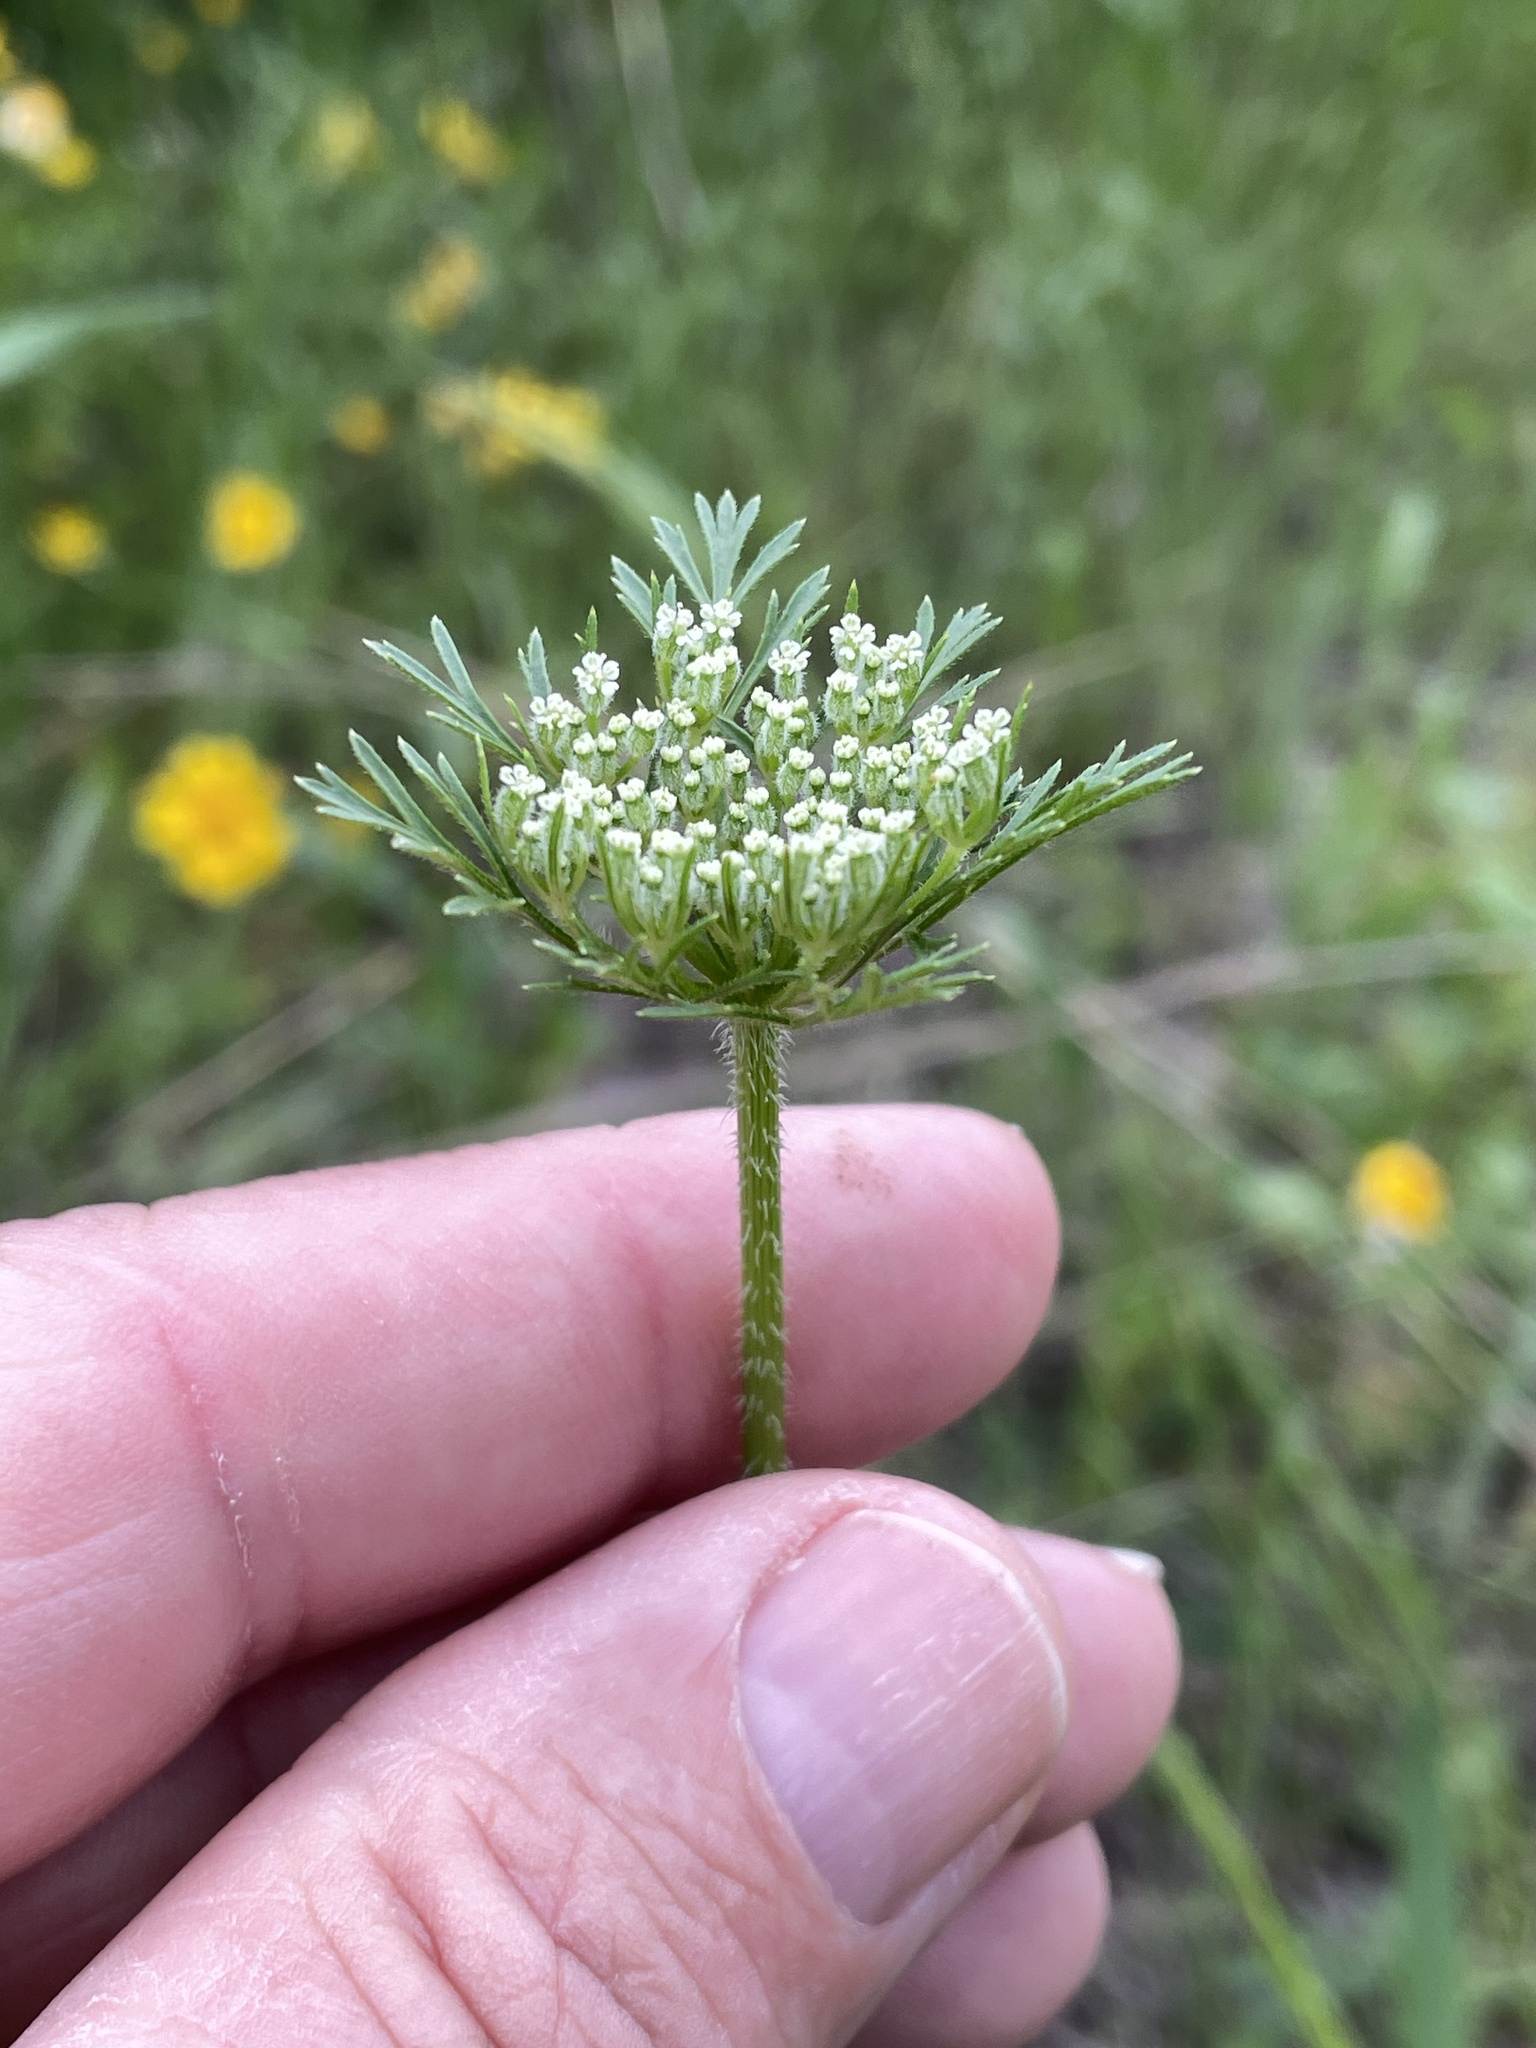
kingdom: Plantae
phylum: Tracheophyta
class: Magnoliopsida
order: Apiales
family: Apiaceae
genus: Daucus
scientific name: Daucus pusillus
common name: Southwest wild carrot
